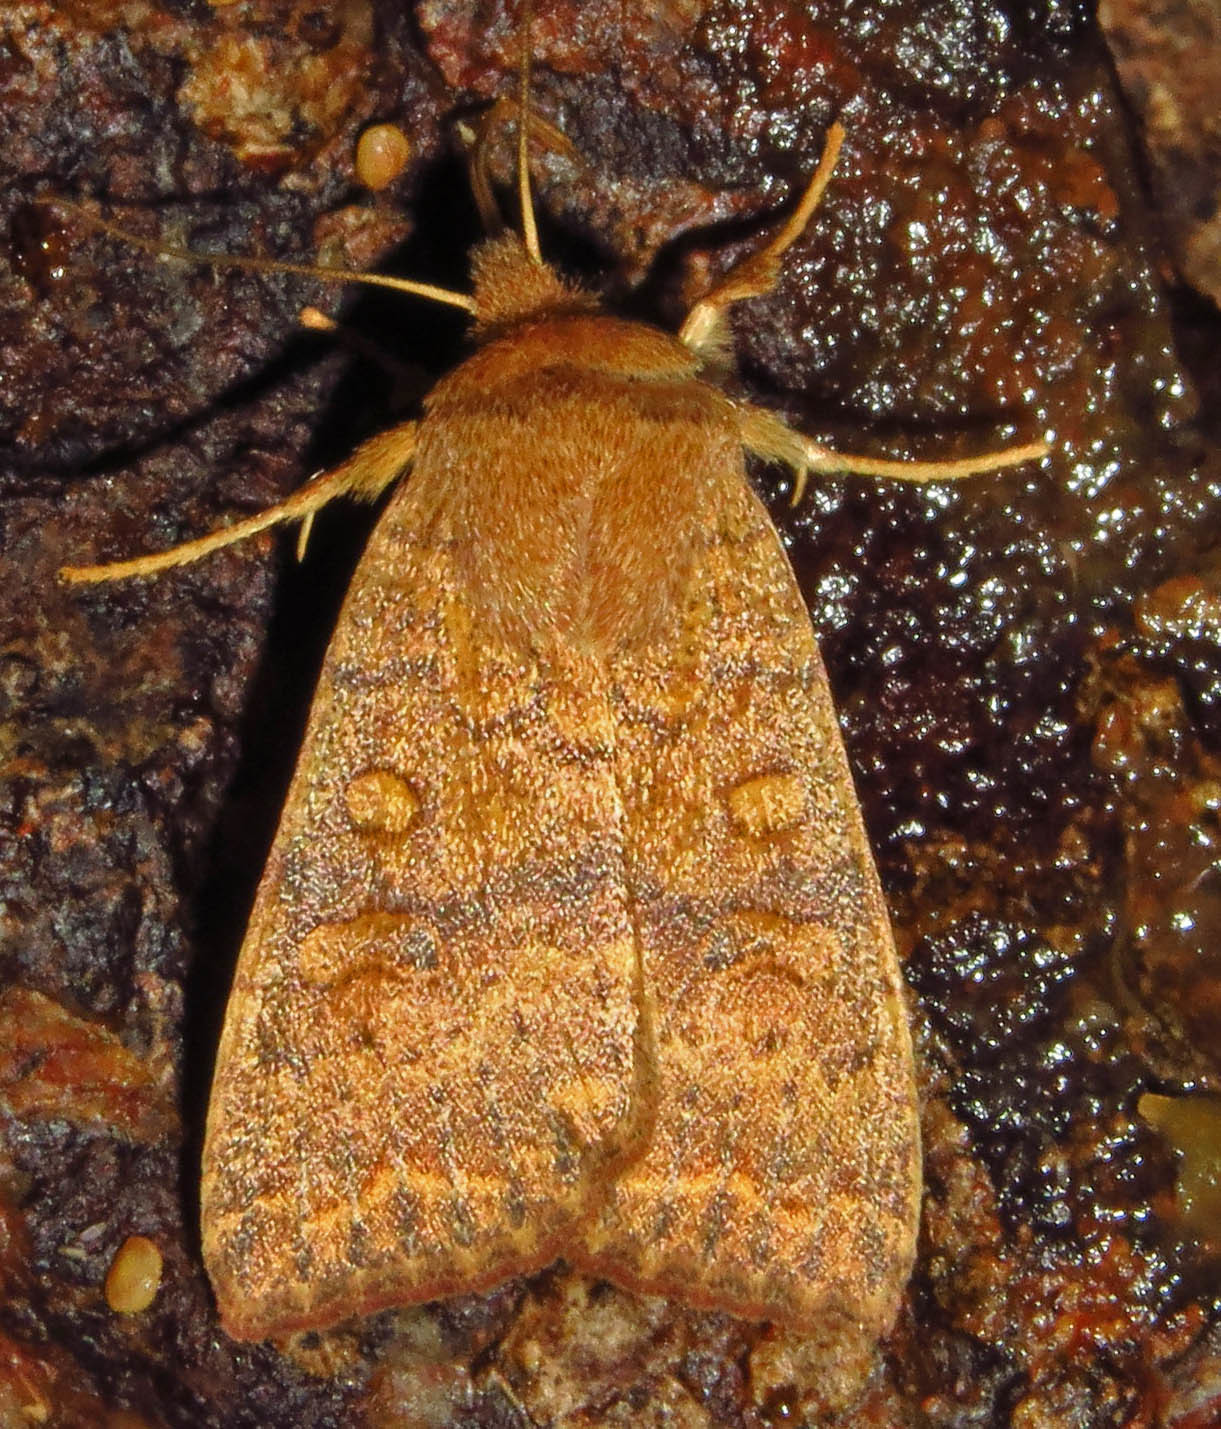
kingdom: Animalia
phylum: Arthropoda
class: Insecta
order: Lepidoptera
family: Noctuidae
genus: Agrochola
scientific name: Agrochola bicolorago
